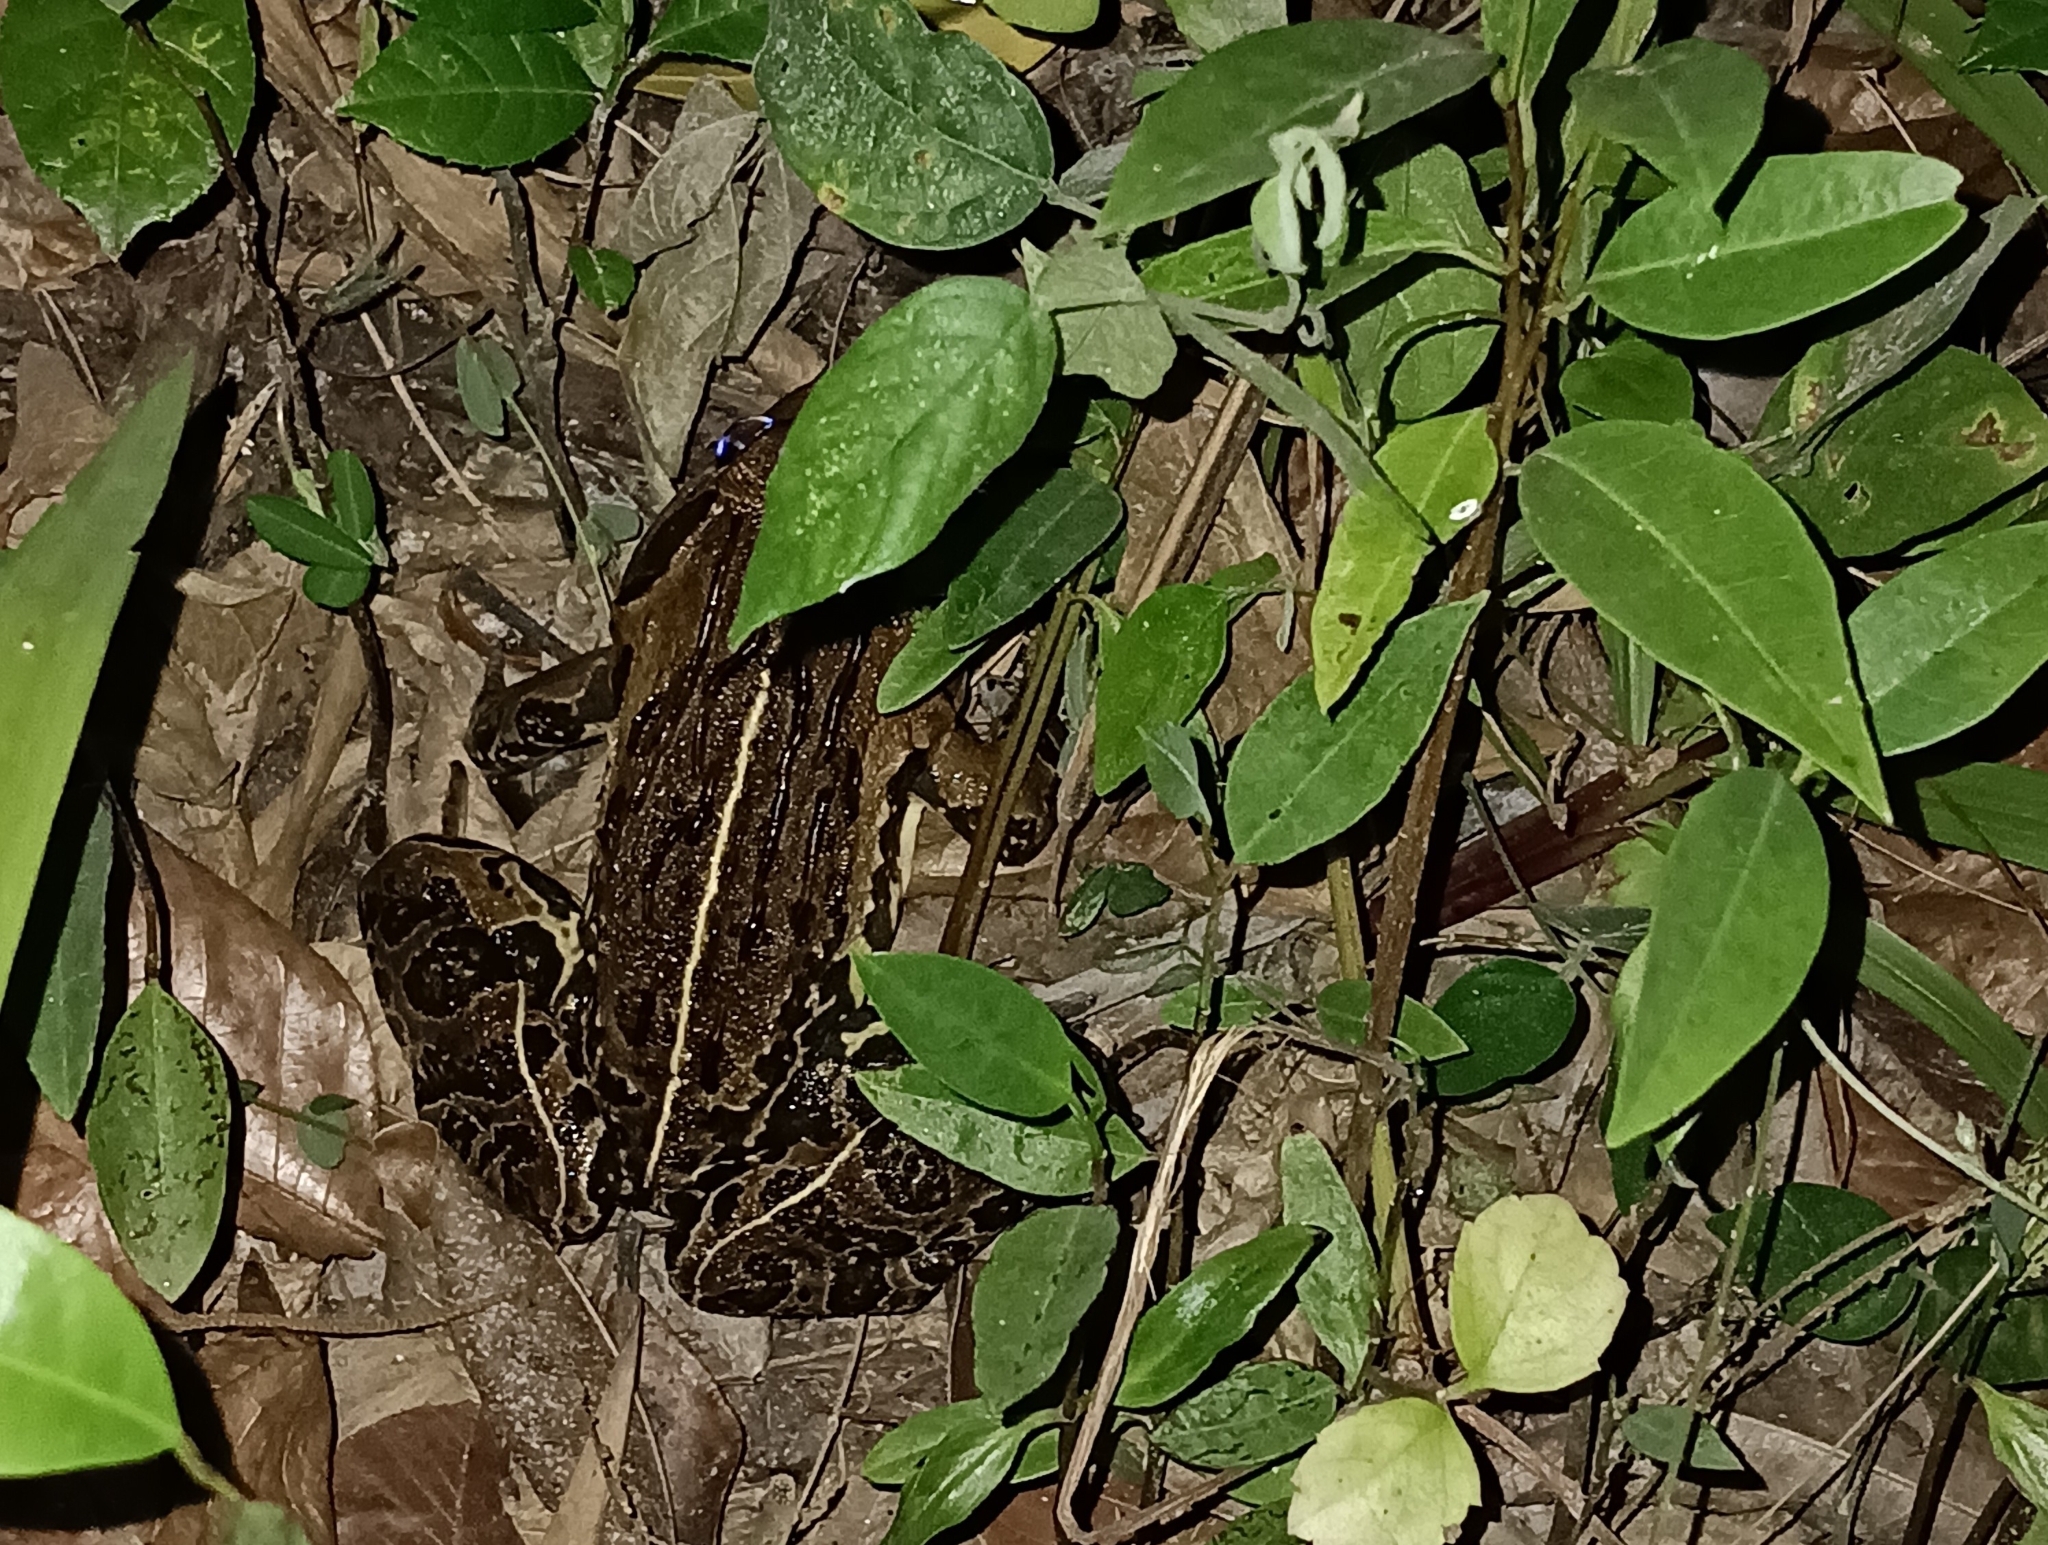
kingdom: Animalia
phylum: Chordata
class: Amphibia
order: Anura
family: Dicroglossidae
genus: Hoplobatrachus
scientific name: Hoplobatrachus tigerinus
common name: Indian bullfrog
